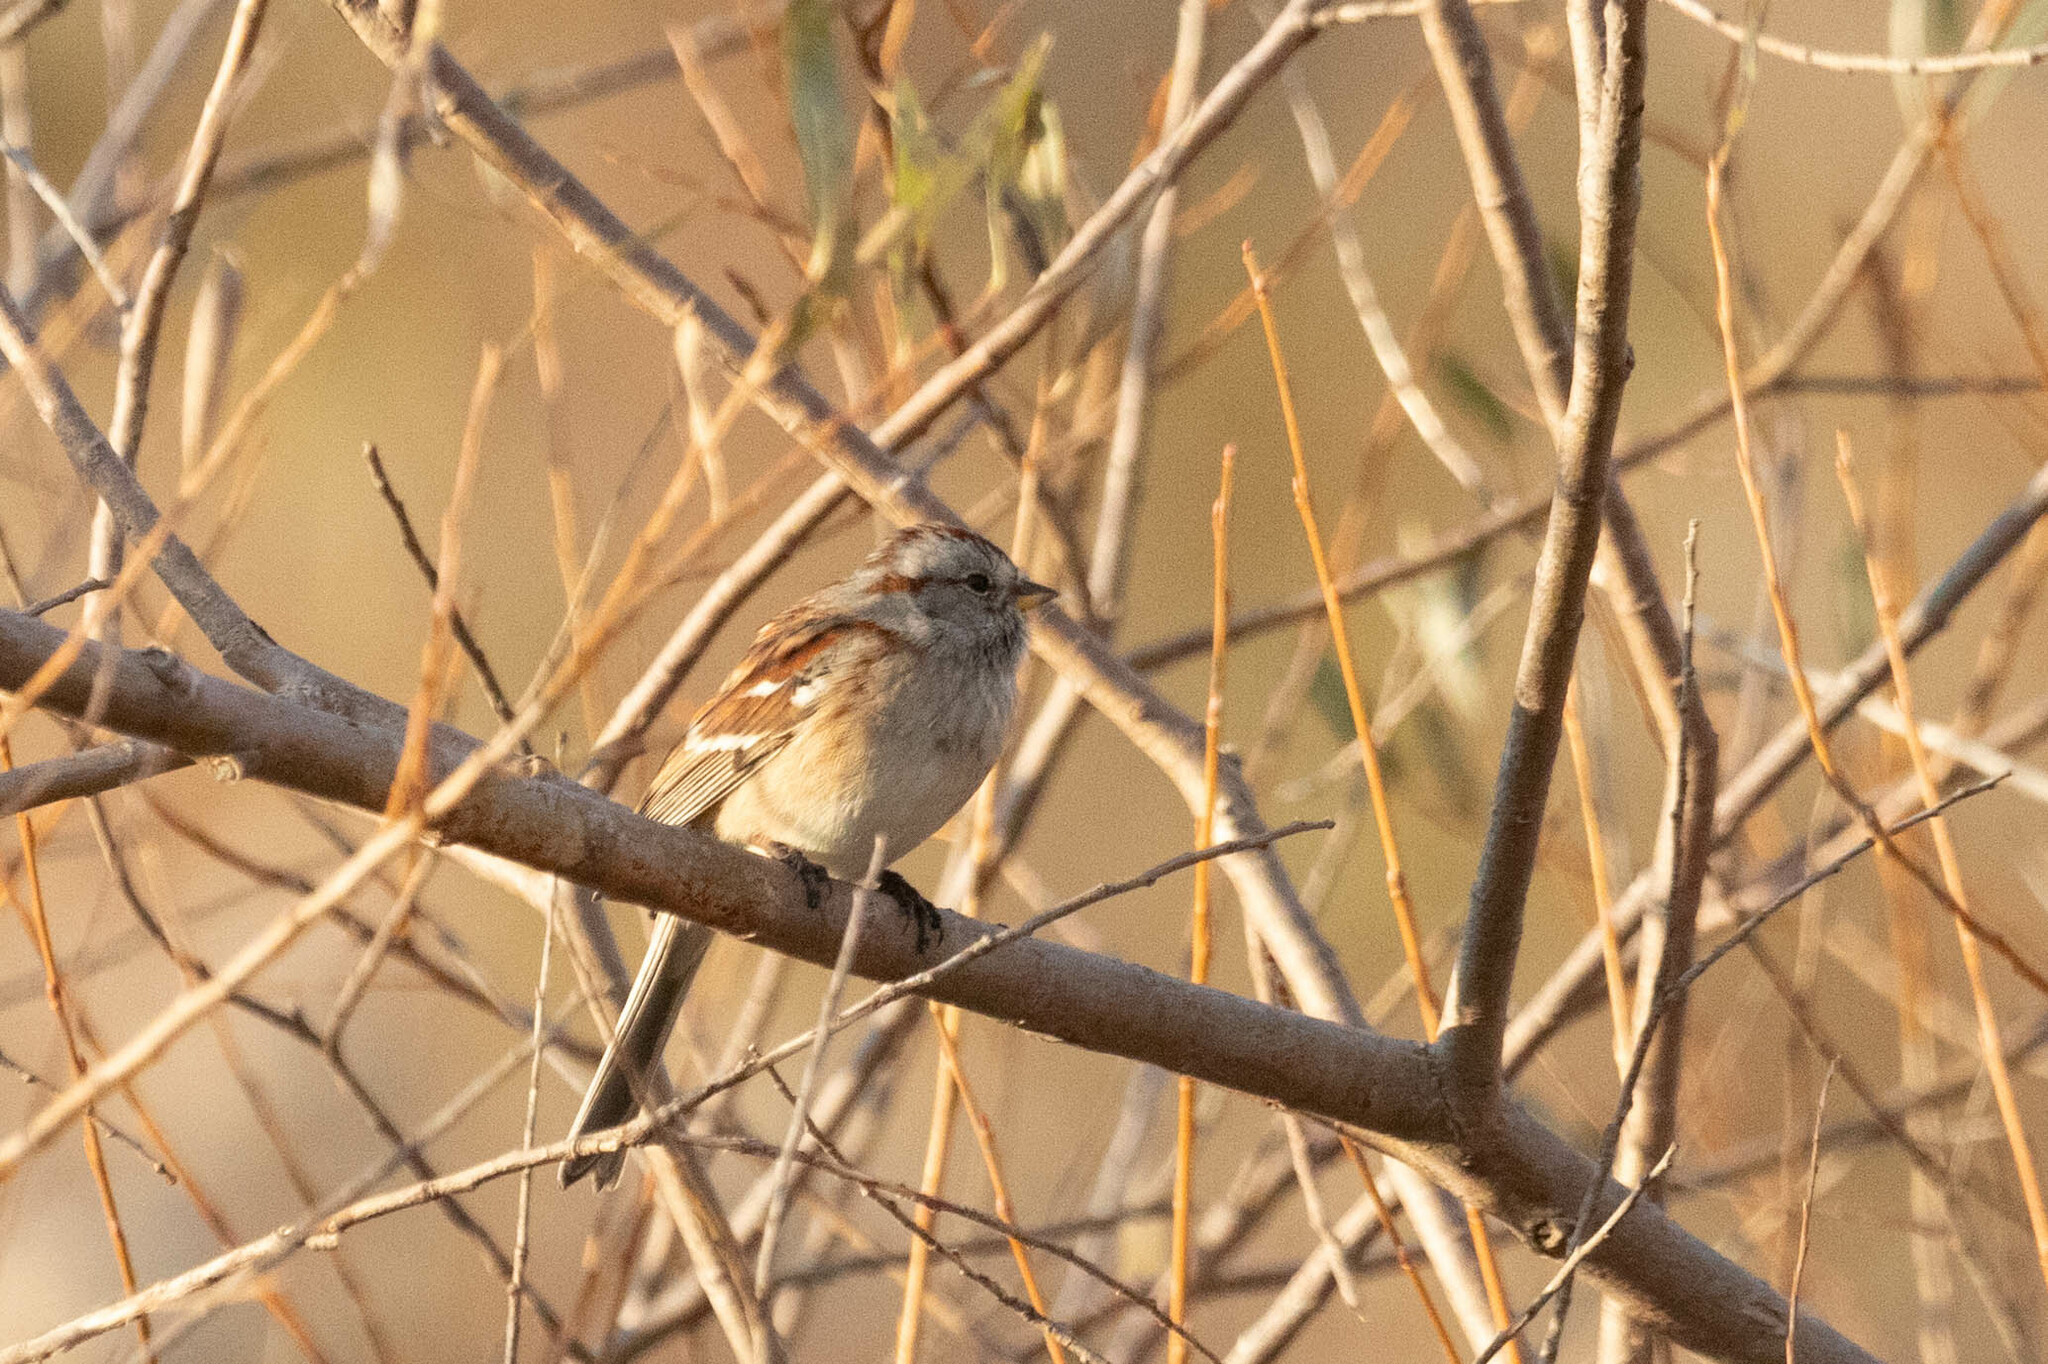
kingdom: Animalia
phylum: Chordata
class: Aves
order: Passeriformes
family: Passerellidae
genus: Spizelloides
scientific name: Spizelloides arborea
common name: American tree sparrow
